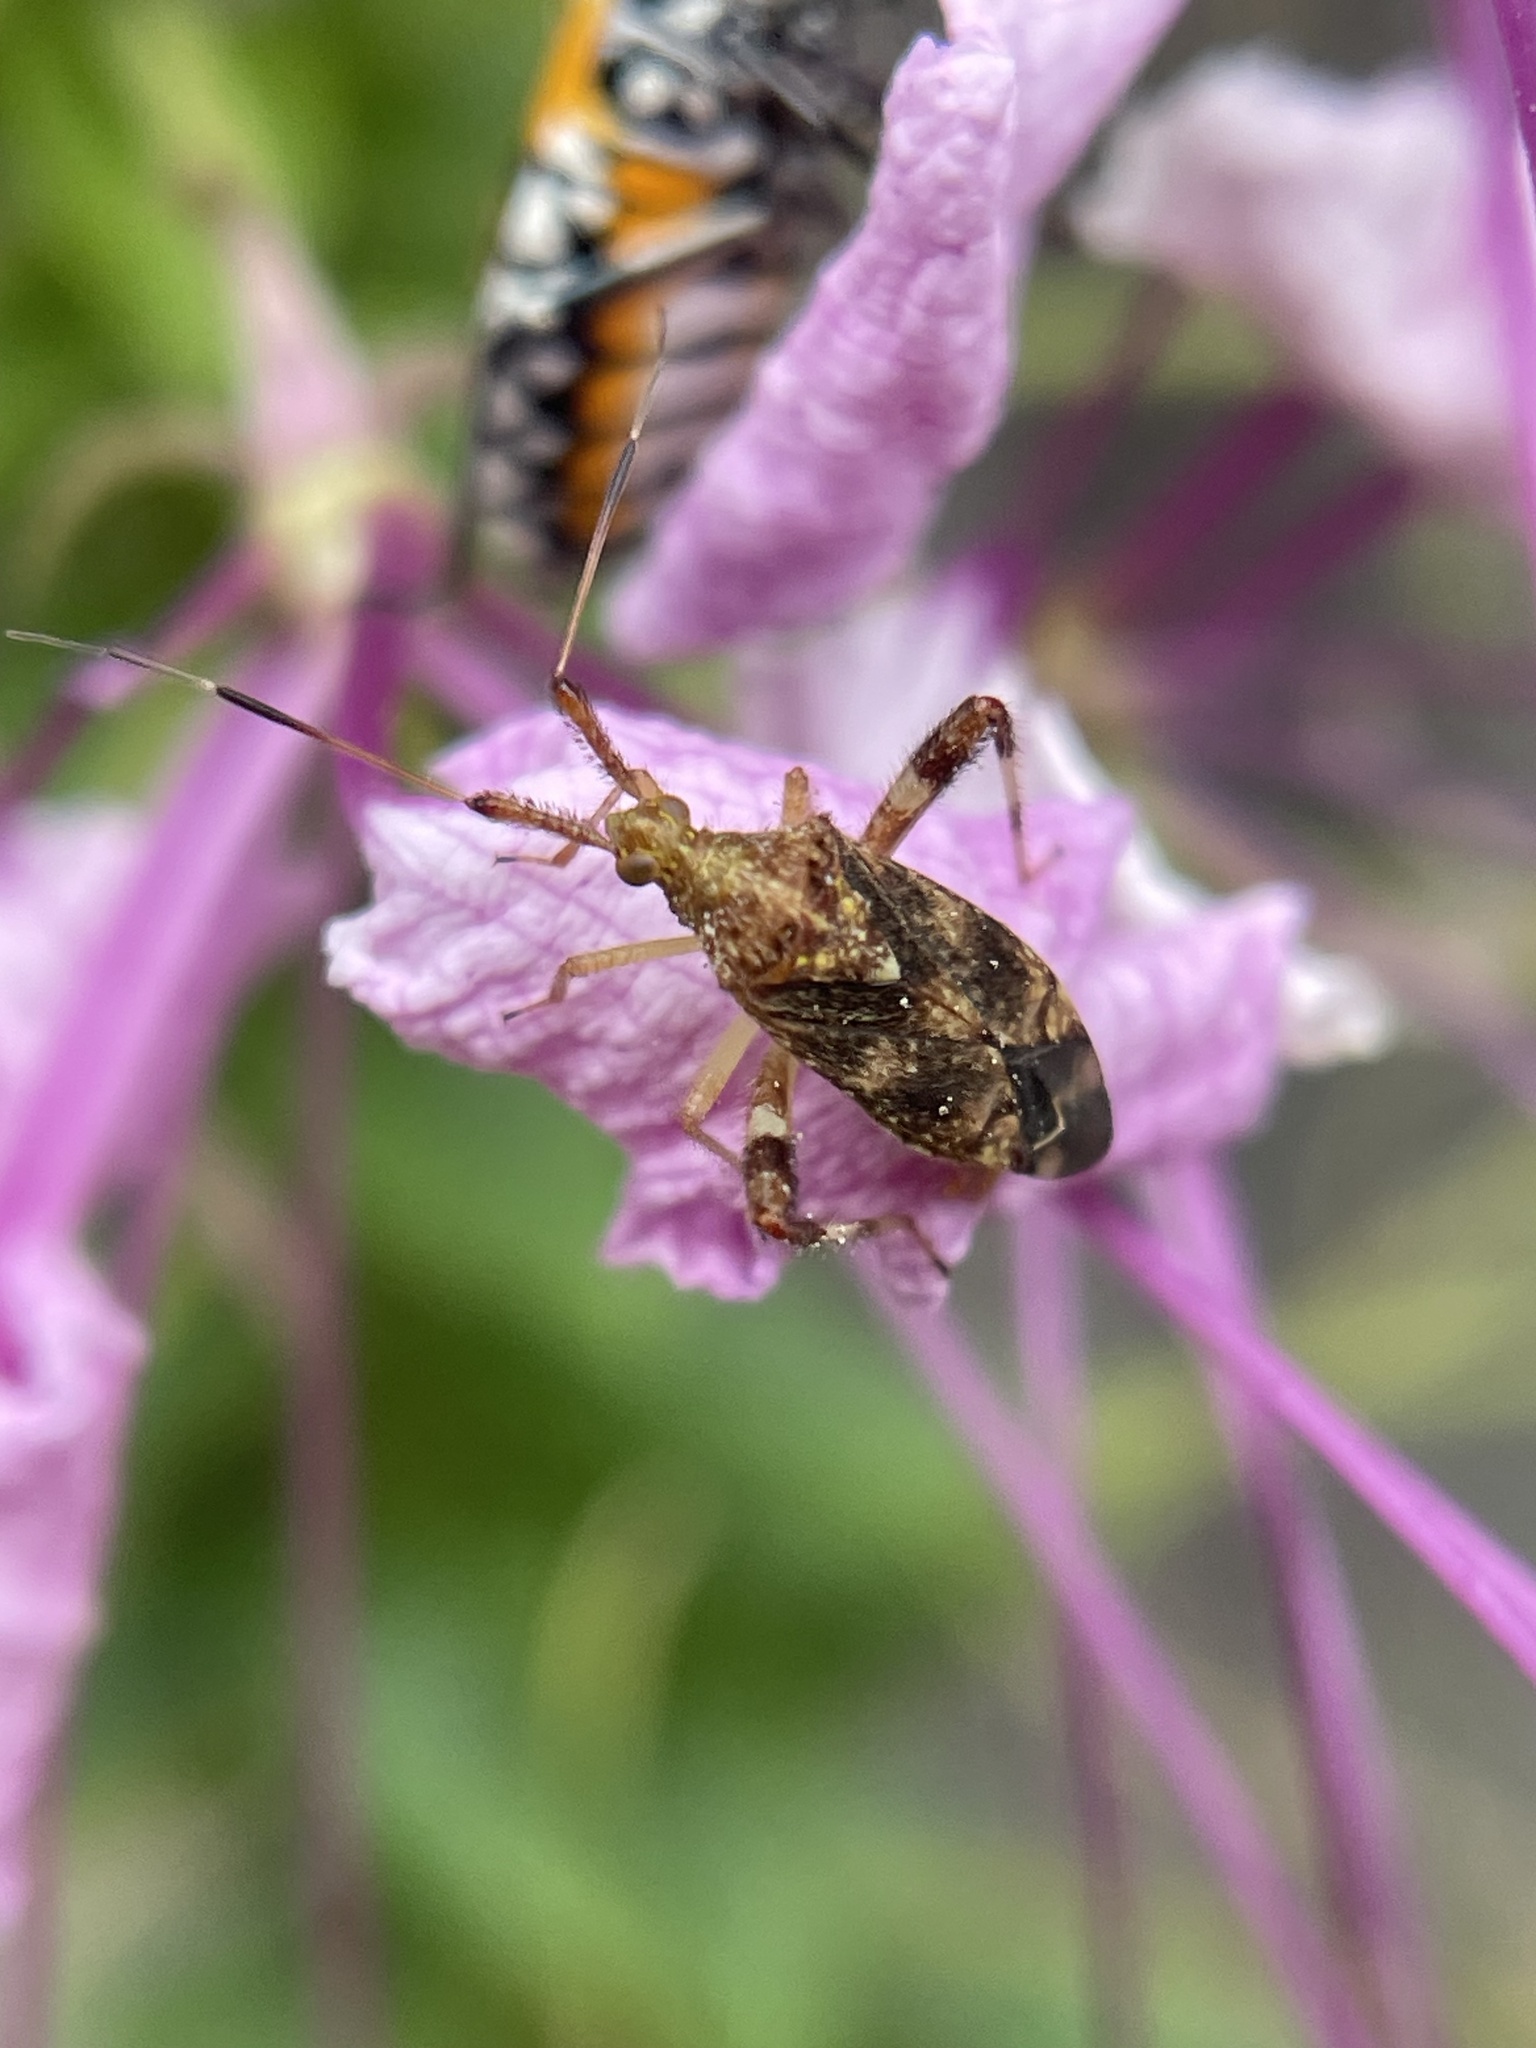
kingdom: Animalia
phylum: Arthropoda
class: Insecta
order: Hemiptera
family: Miridae
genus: Neurocolpus
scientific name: Neurocolpus nubilus
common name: Clouded plant bug
